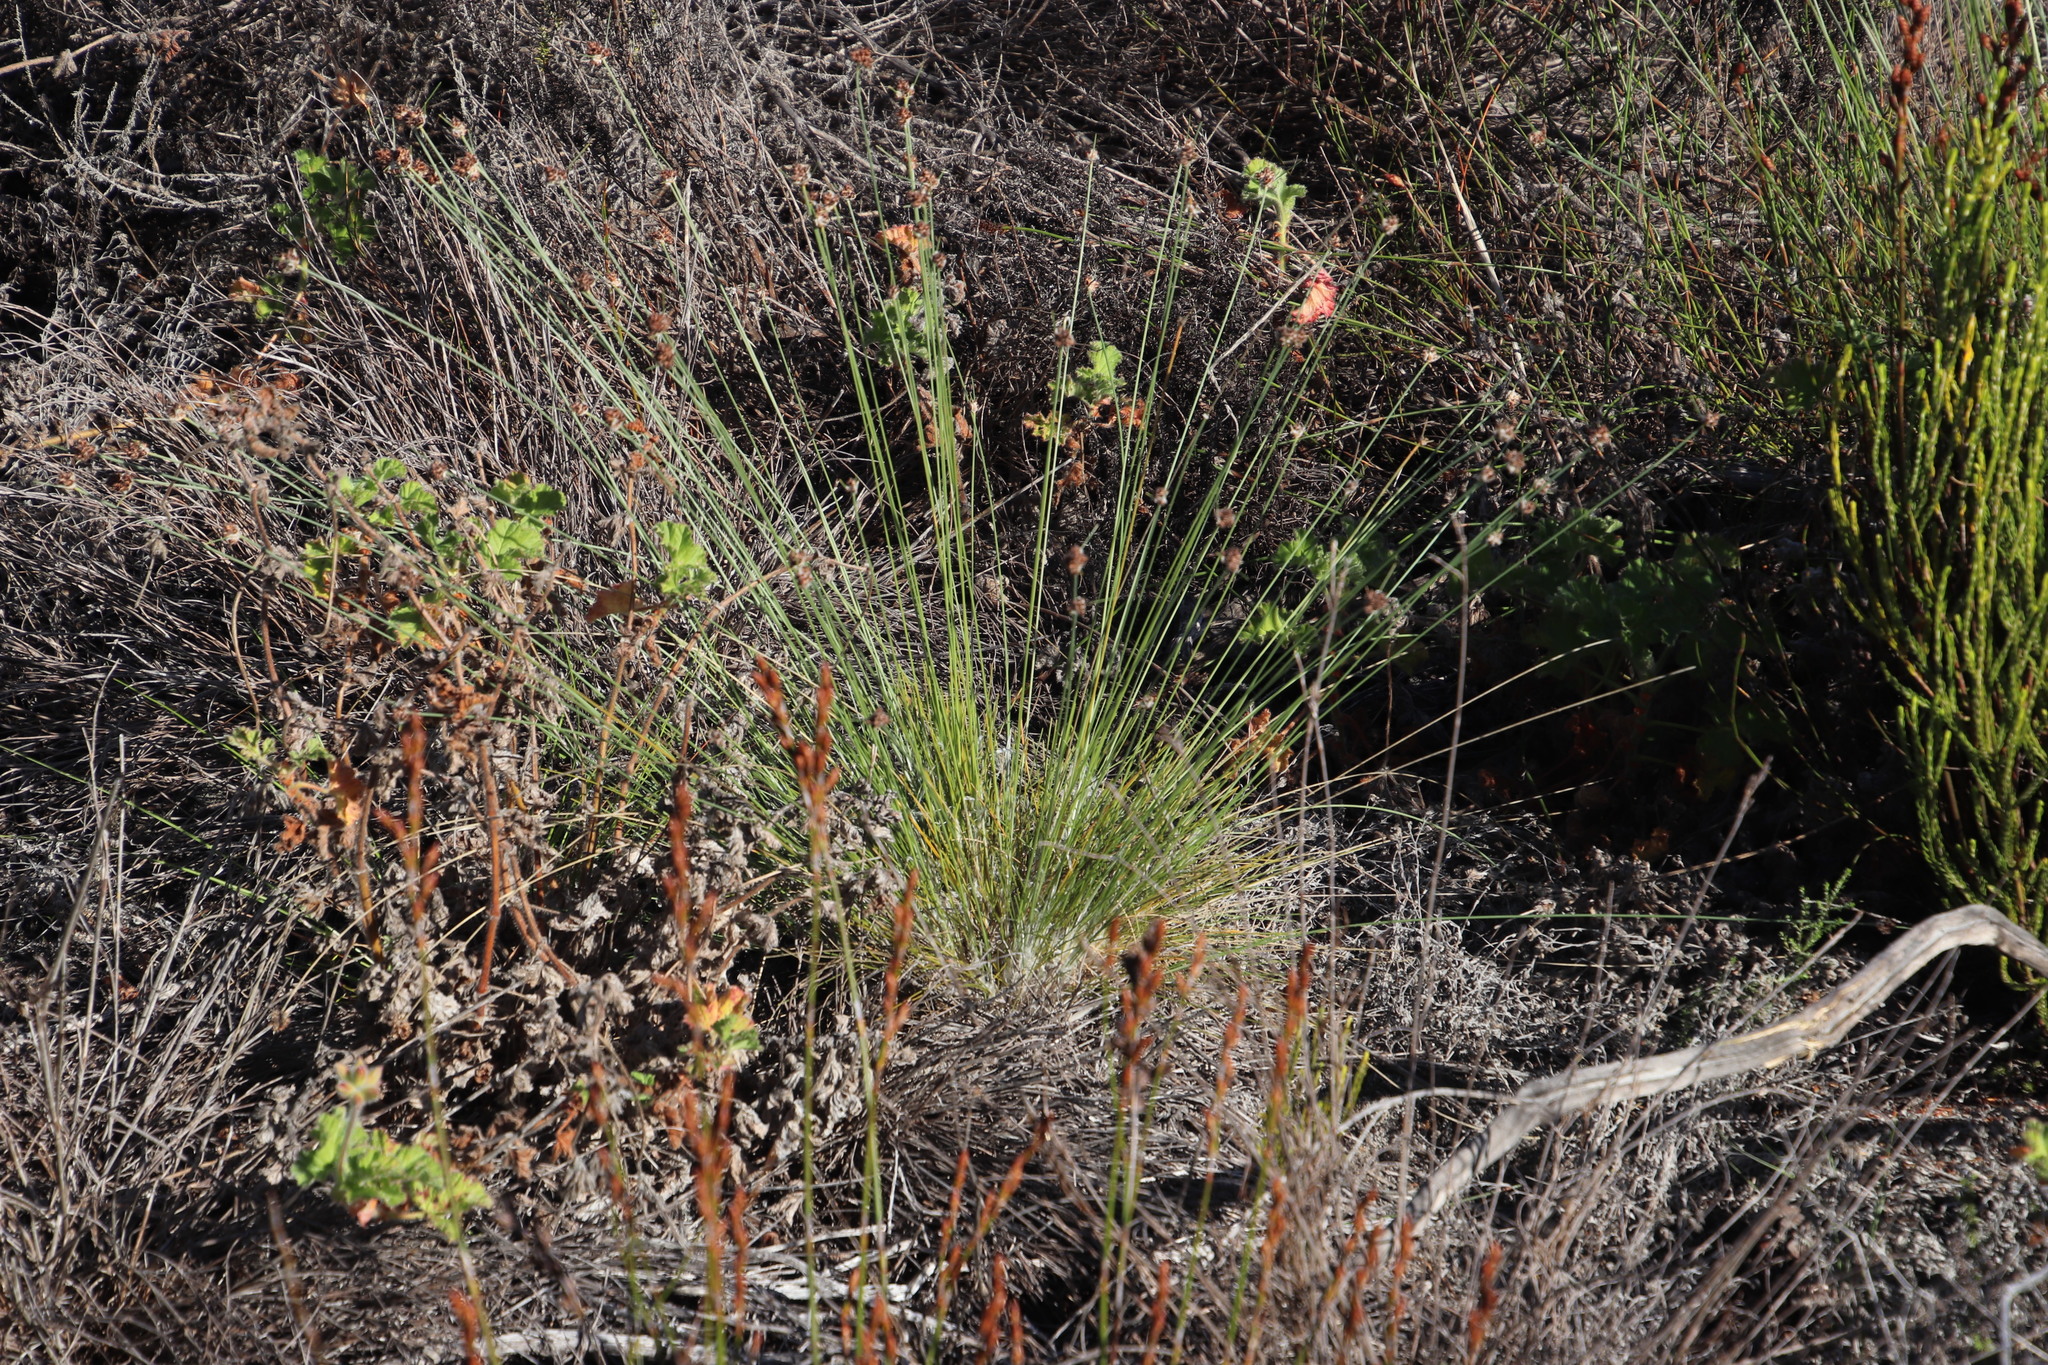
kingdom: Plantae
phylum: Tracheophyta
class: Liliopsida
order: Poales
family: Cyperaceae
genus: Ficinia
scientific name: Ficinia laciniata
